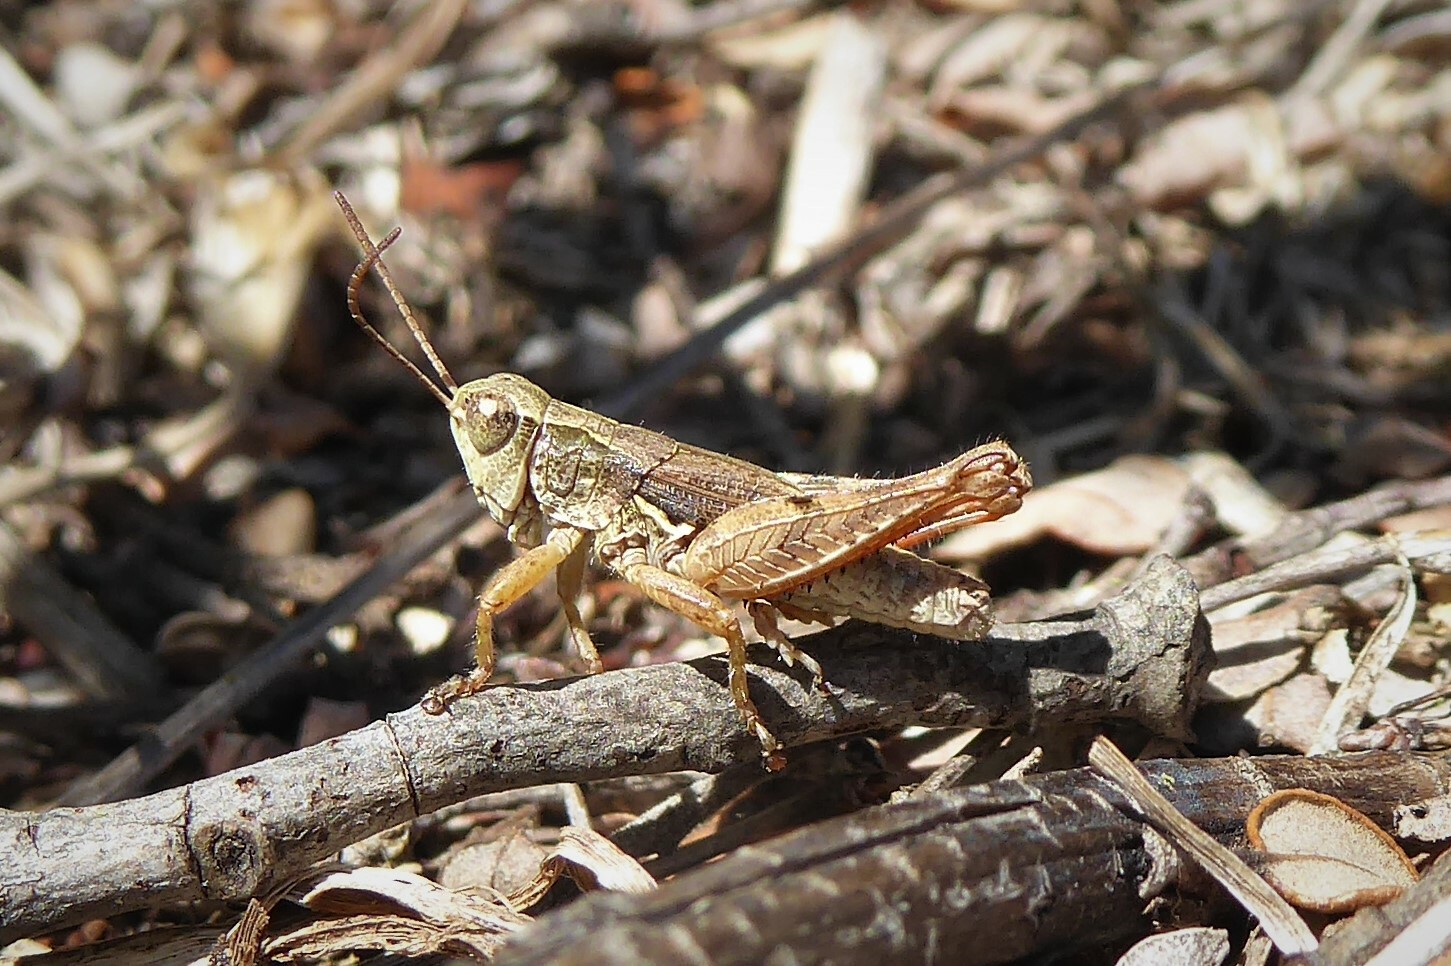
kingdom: Animalia
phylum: Arthropoda
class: Insecta
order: Orthoptera
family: Acrididae
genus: Phaulacridium
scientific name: Phaulacridium marginale
